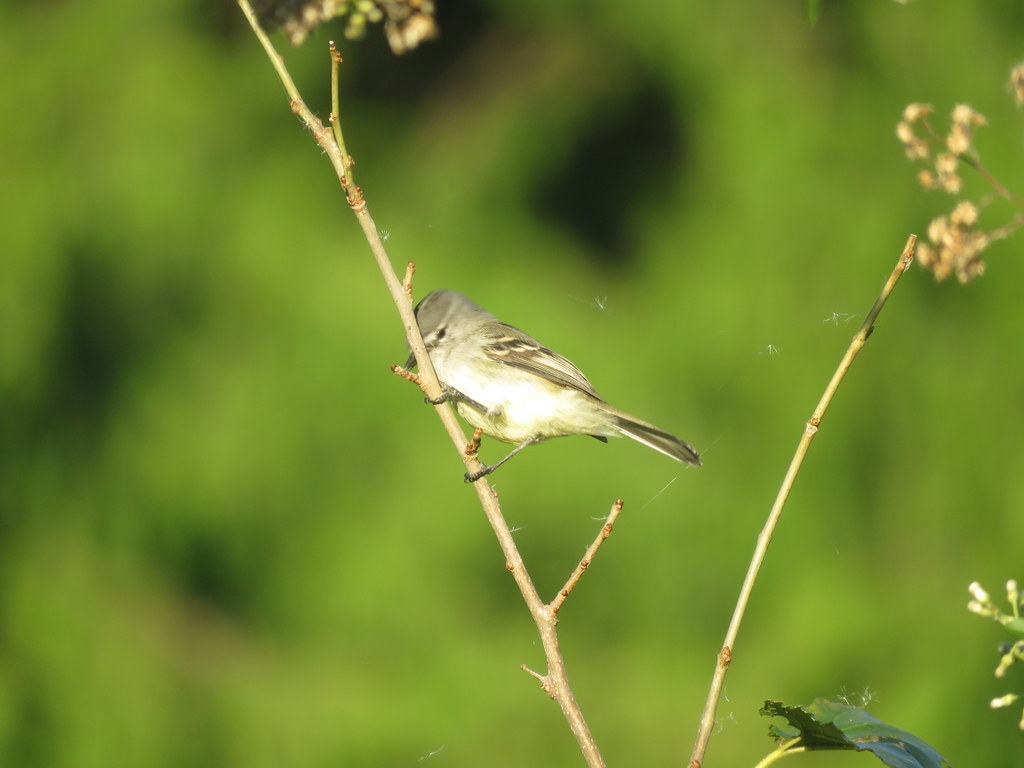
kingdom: Animalia
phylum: Chordata
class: Aves
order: Passeriformes
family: Tyrannidae
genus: Serpophaga
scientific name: Serpophaga subcristata
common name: White-crested tyrannulet
